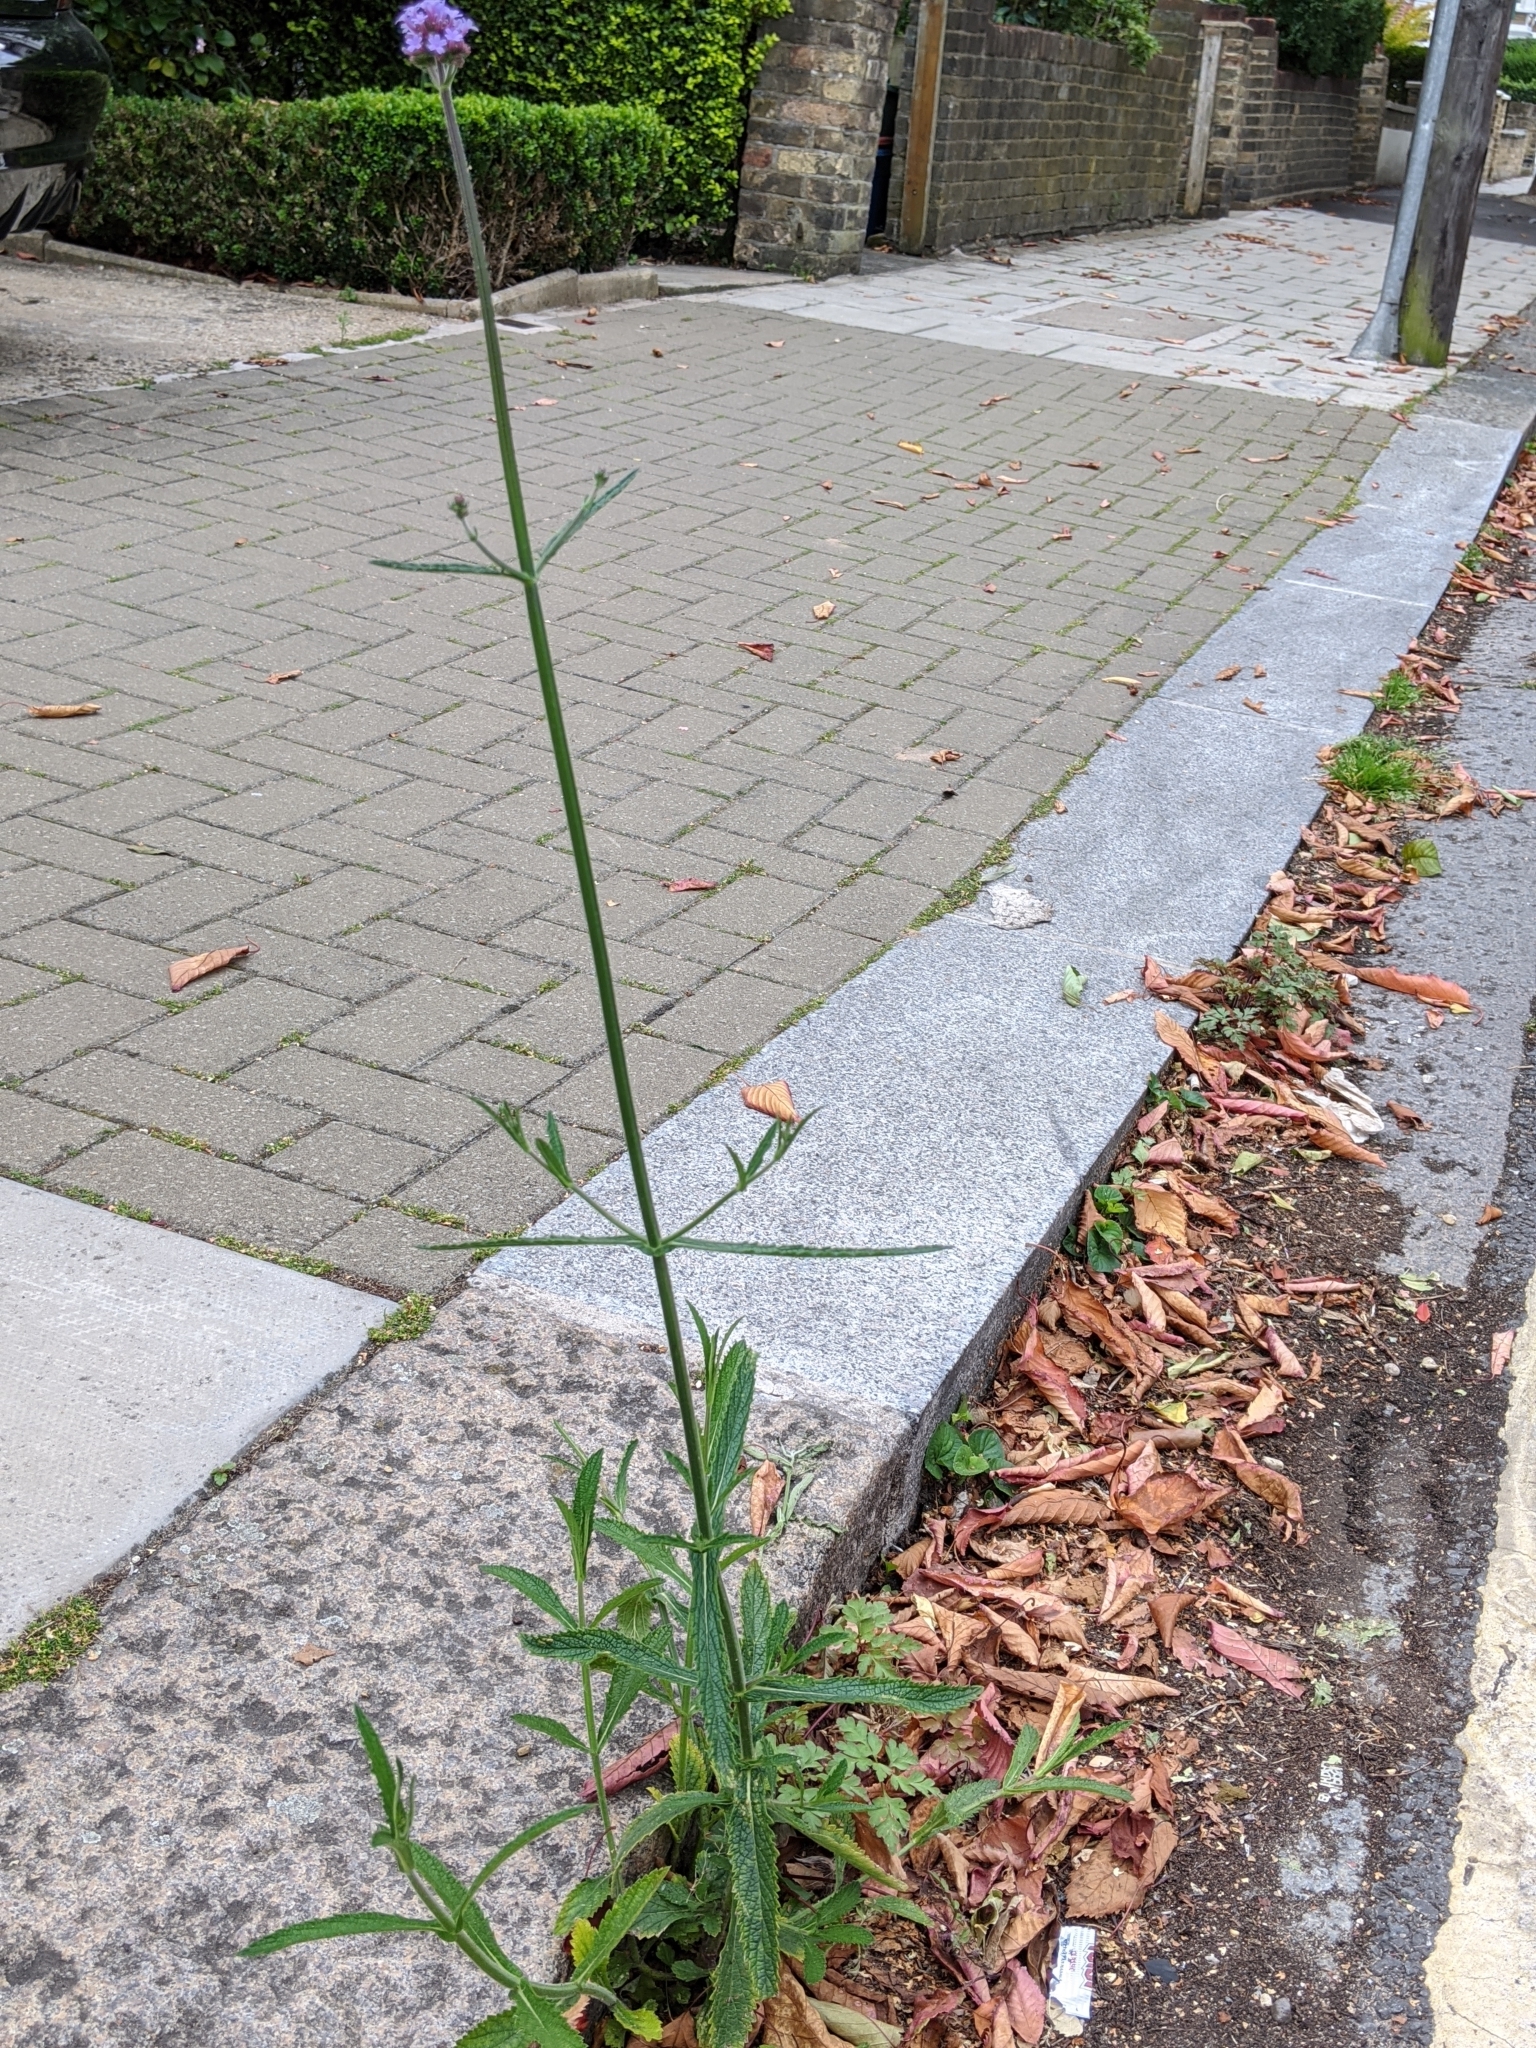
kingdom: Plantae
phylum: Tracheophyta
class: Magnoliopsida
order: Lamiales
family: Verbenaceae
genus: Verbena
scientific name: Verbena bonariensis
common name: Purpletop vervain
